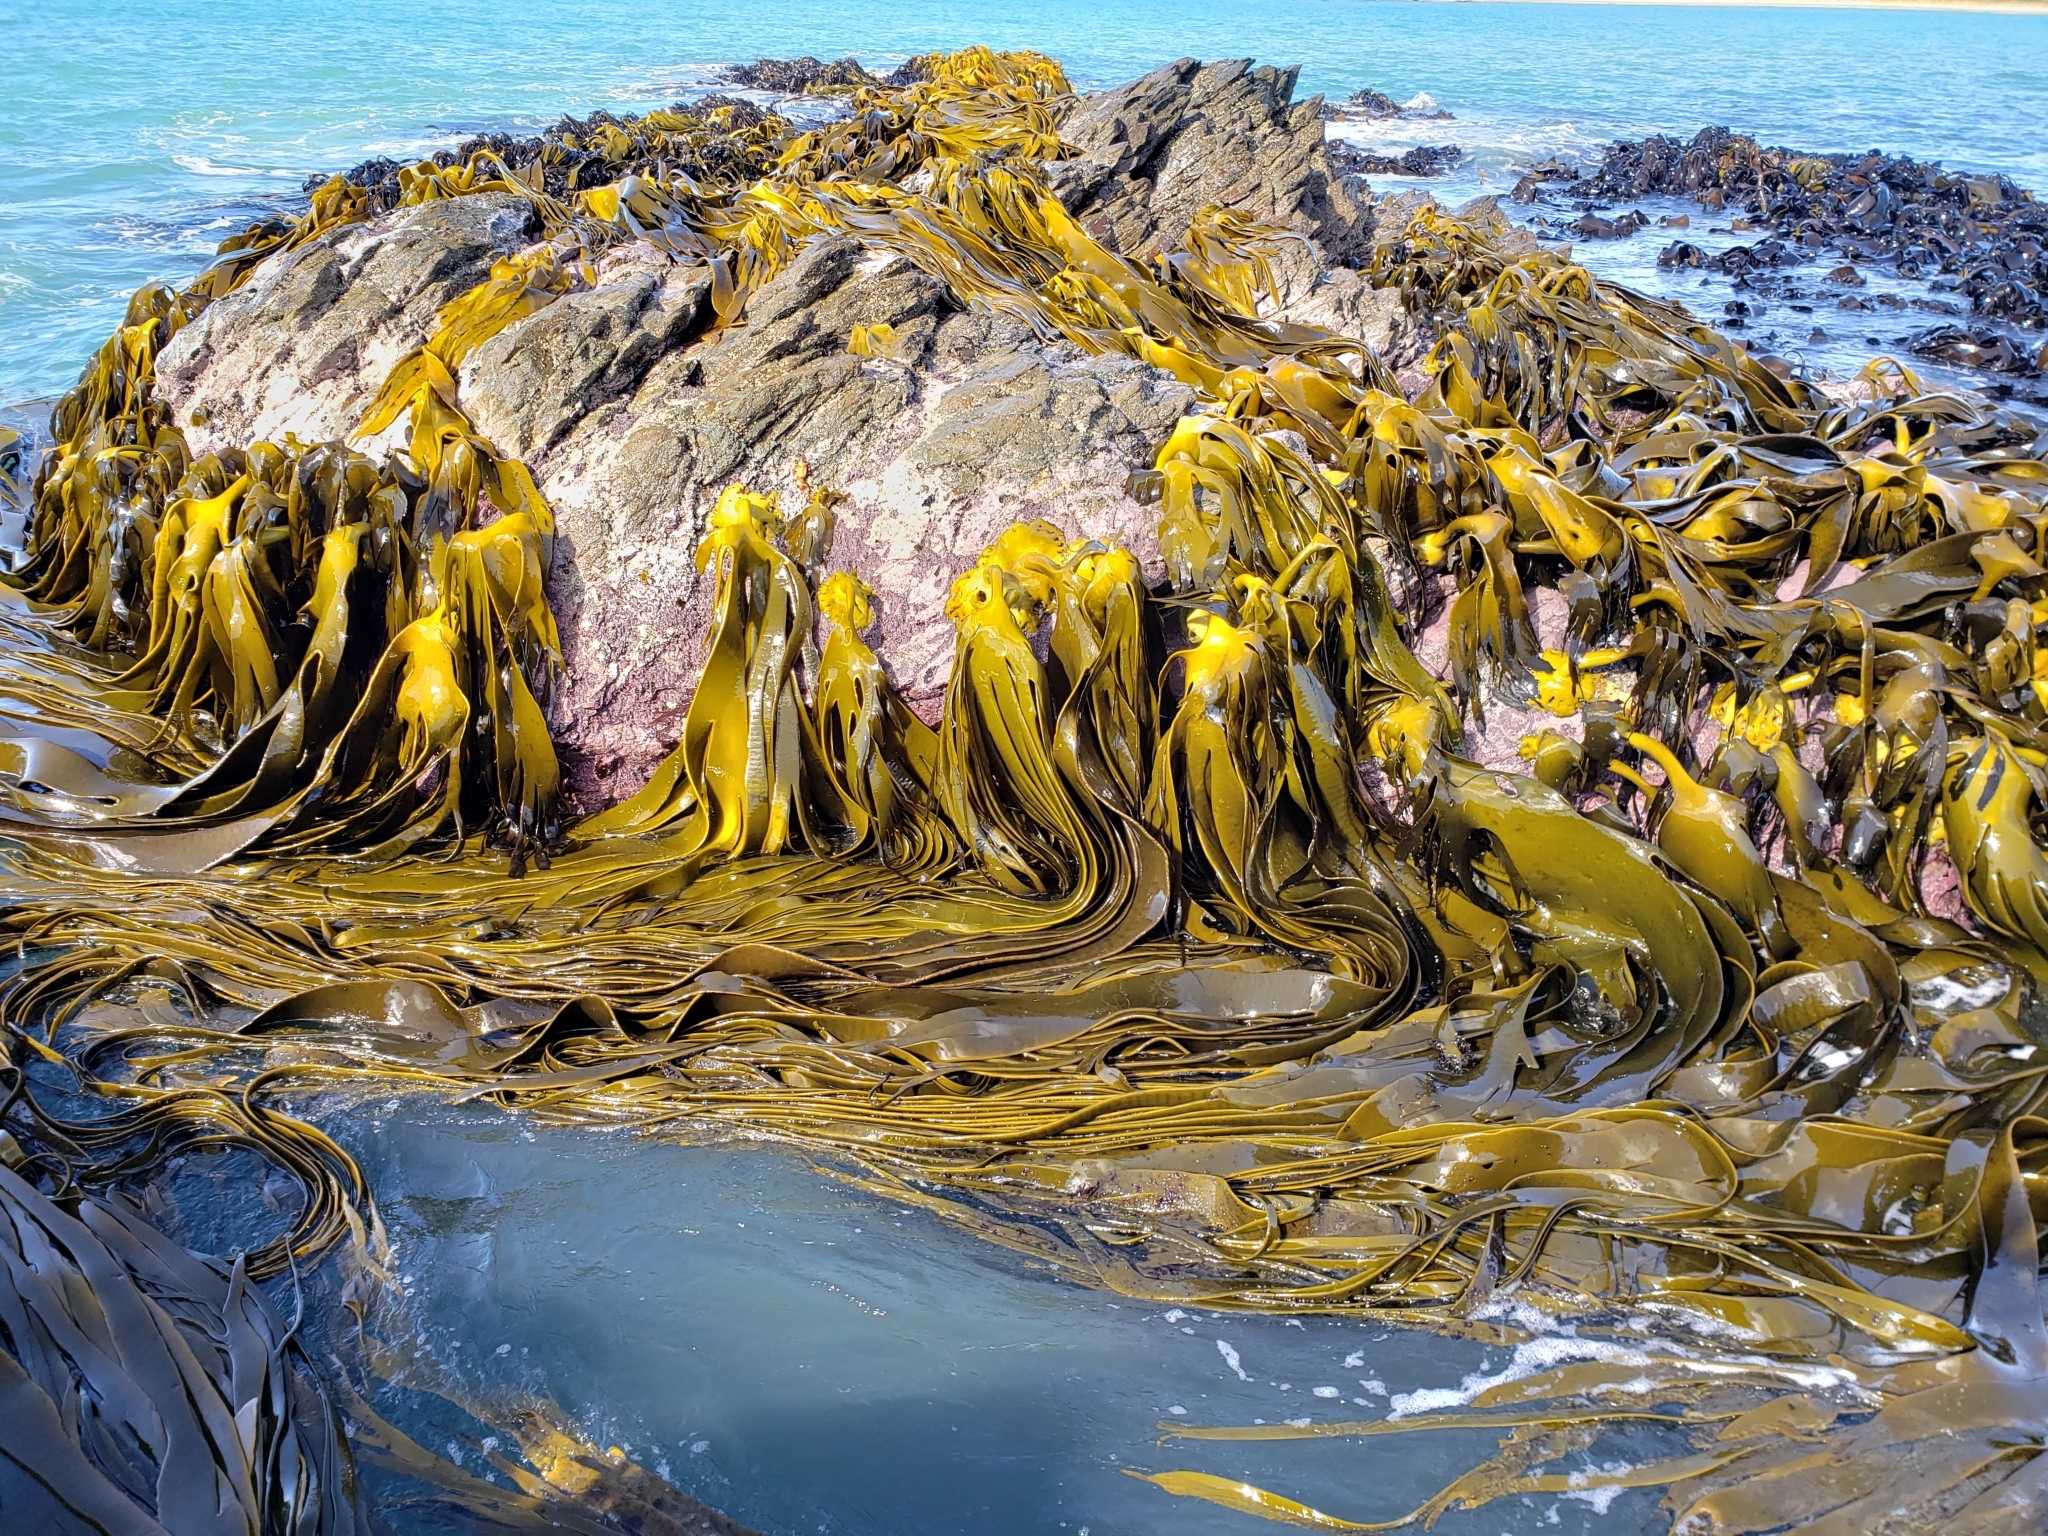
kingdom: Chromista
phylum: Ochrophyta
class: Phaeophyceae
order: Fucales
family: Durvillaeaceae
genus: Durvillaea
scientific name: Durvillaea antarctica
